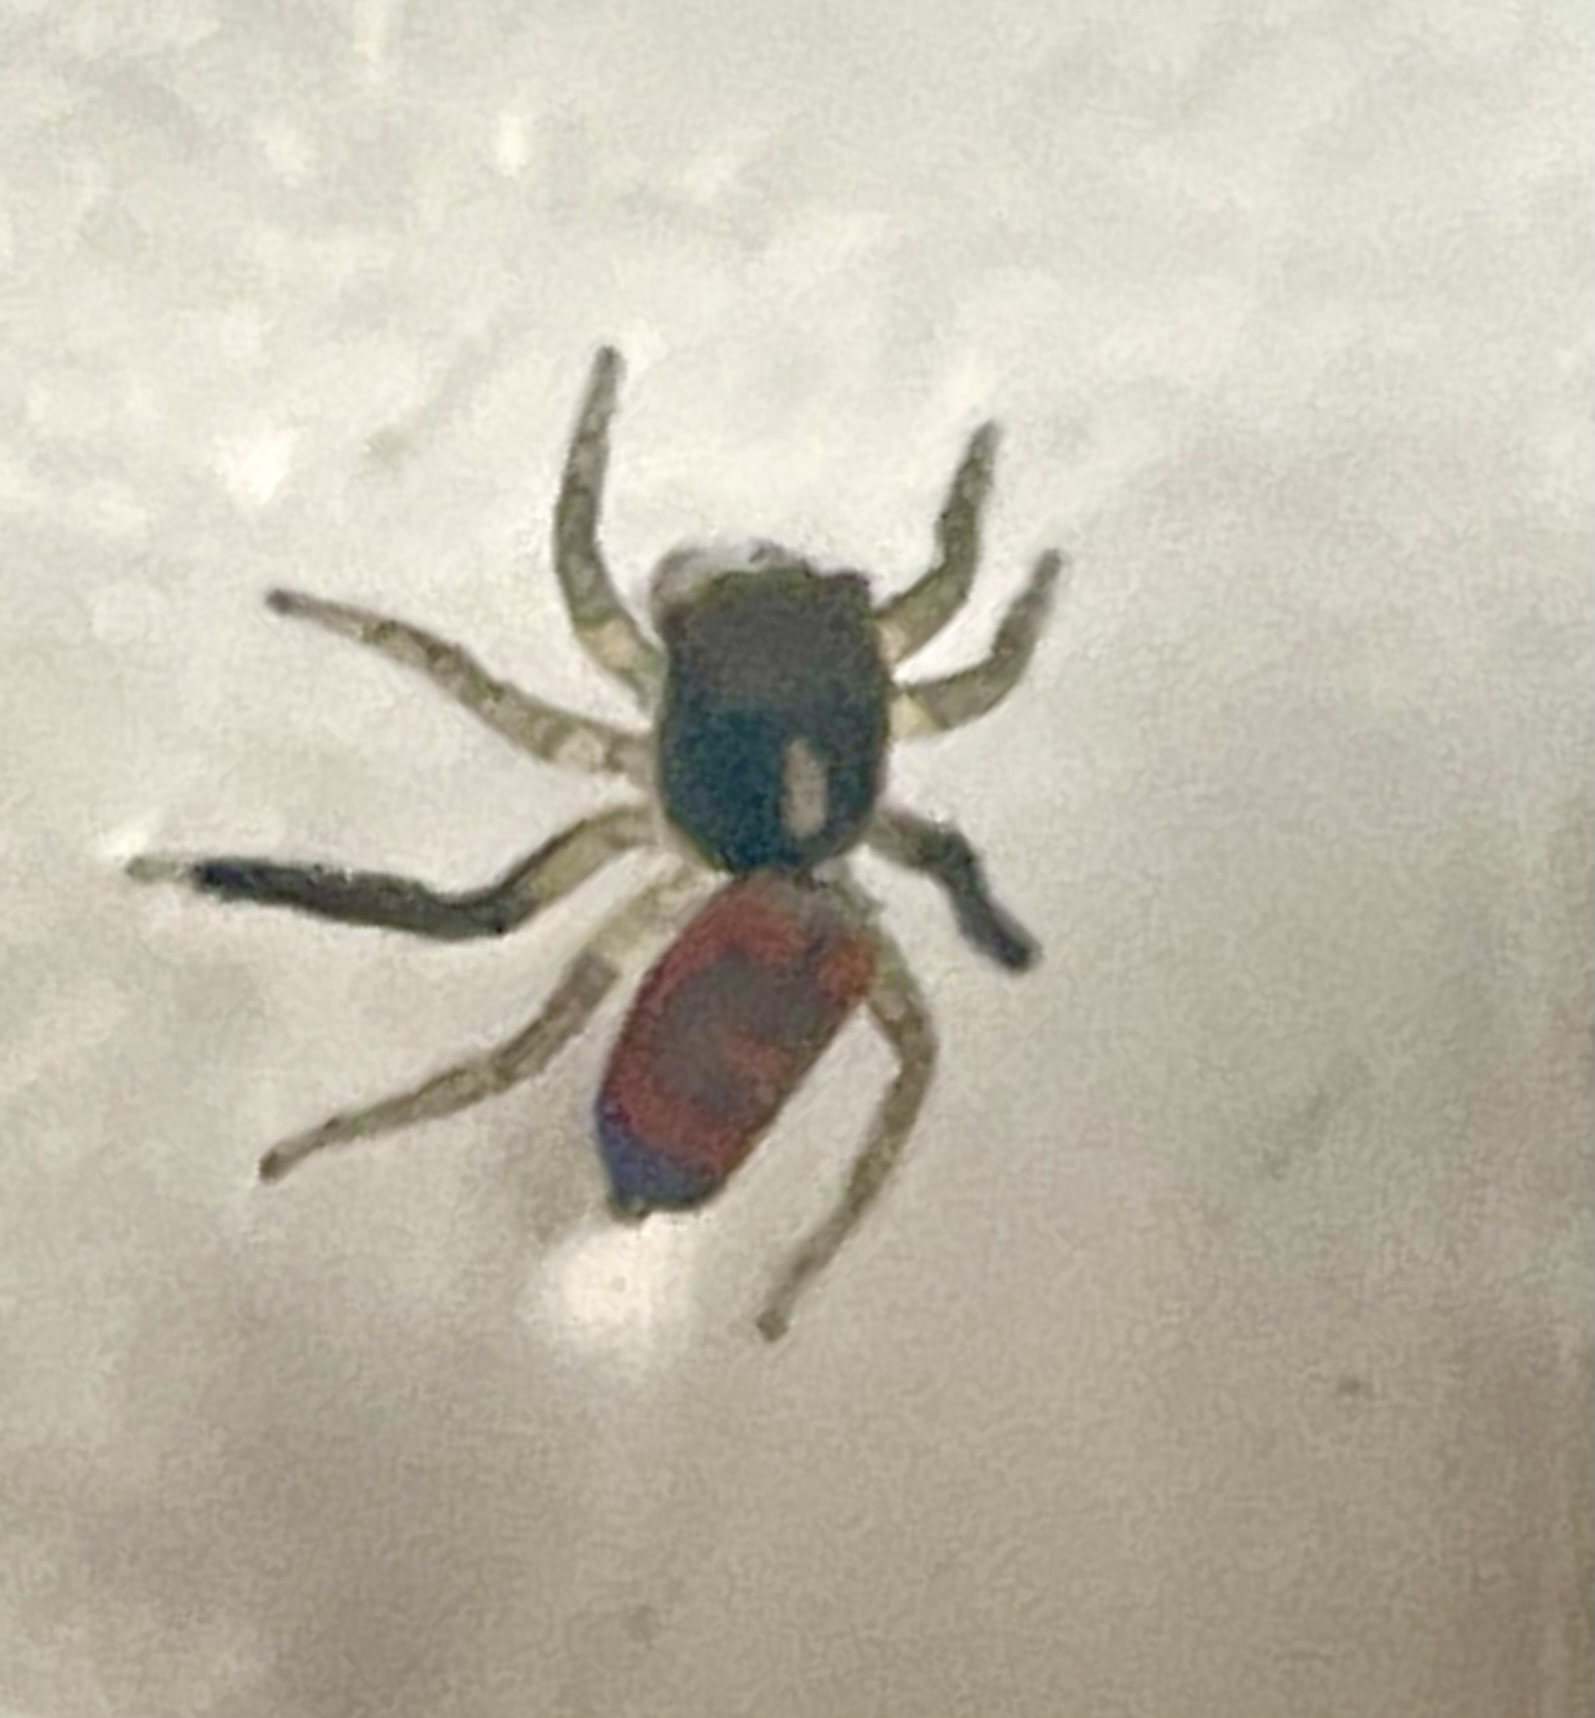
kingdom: Animalia
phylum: Arthropoda
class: Arachnida
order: Araneae
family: Salticidae
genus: Maratus
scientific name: Maratus pavonis
